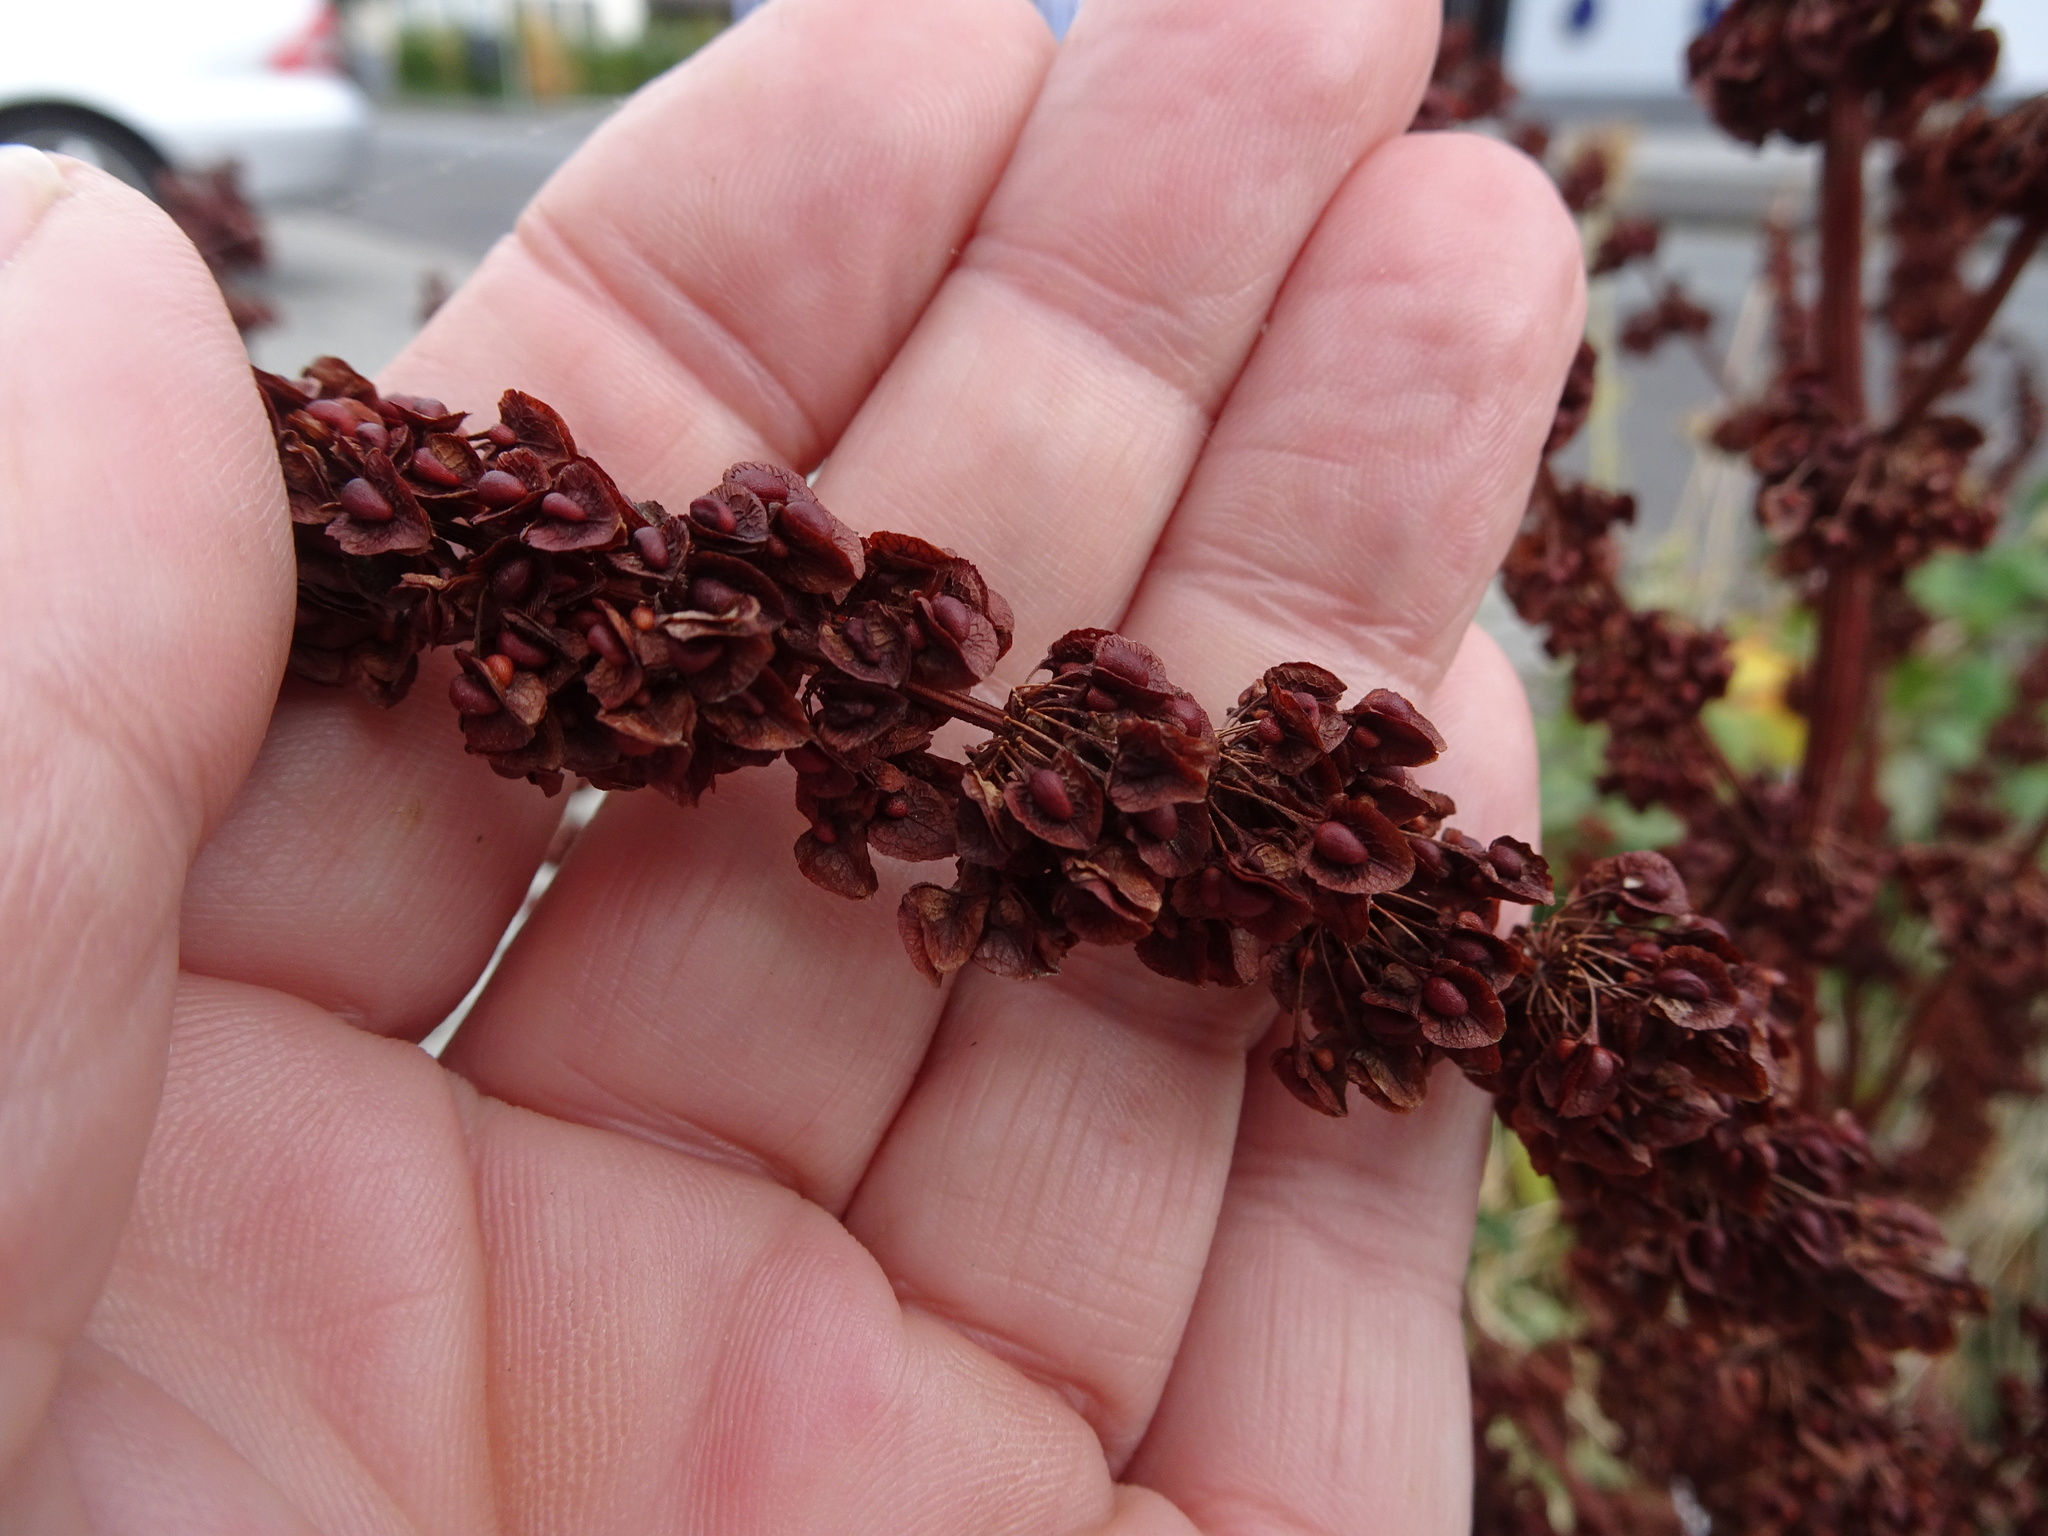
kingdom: Plantae
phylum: Tracheophyta
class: Magnoliopsida
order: Caryophyllales
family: Polygonaceae
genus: Rumex
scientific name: Rumex crispus
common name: Curled dock
